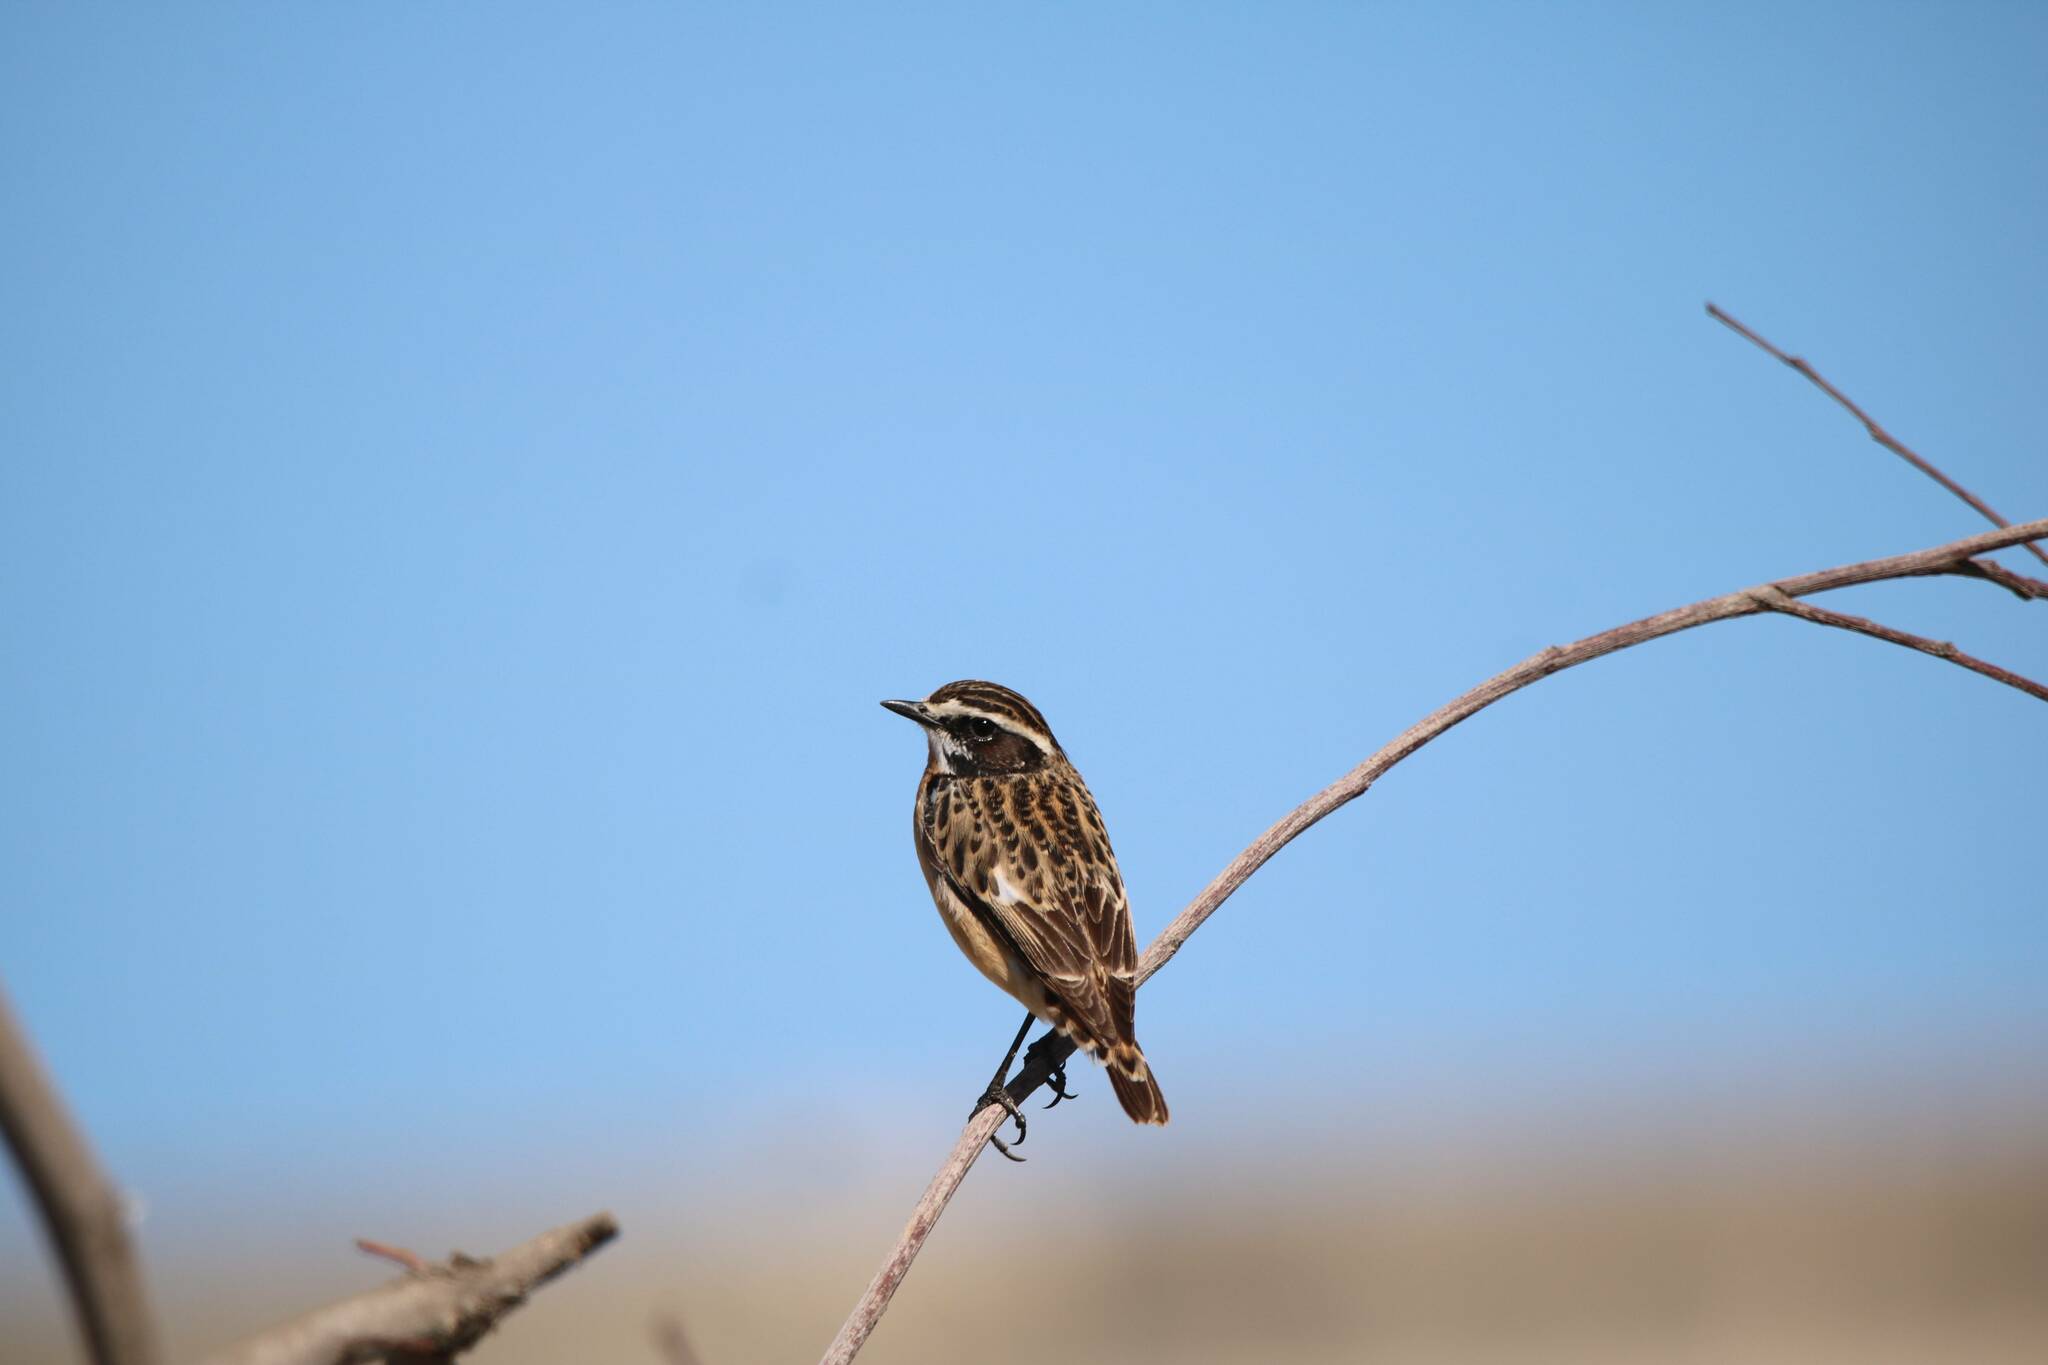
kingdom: Animalia
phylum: Chordata
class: Aves
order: Passeriformes
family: Muscicapidae
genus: Saxicola
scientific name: Saxicola rubetra
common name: Whinchat
